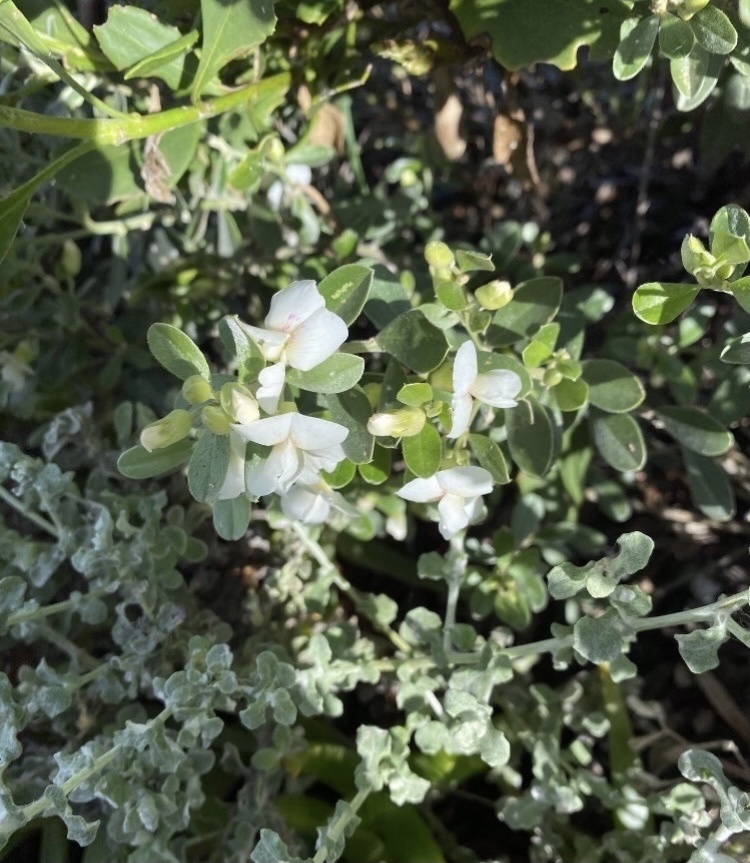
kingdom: Plantae
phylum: Tracheophyta
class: Magnoliopsida
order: Fabales
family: Fabaceae
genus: Podalyria
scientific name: Podalyria myrtillifolia
